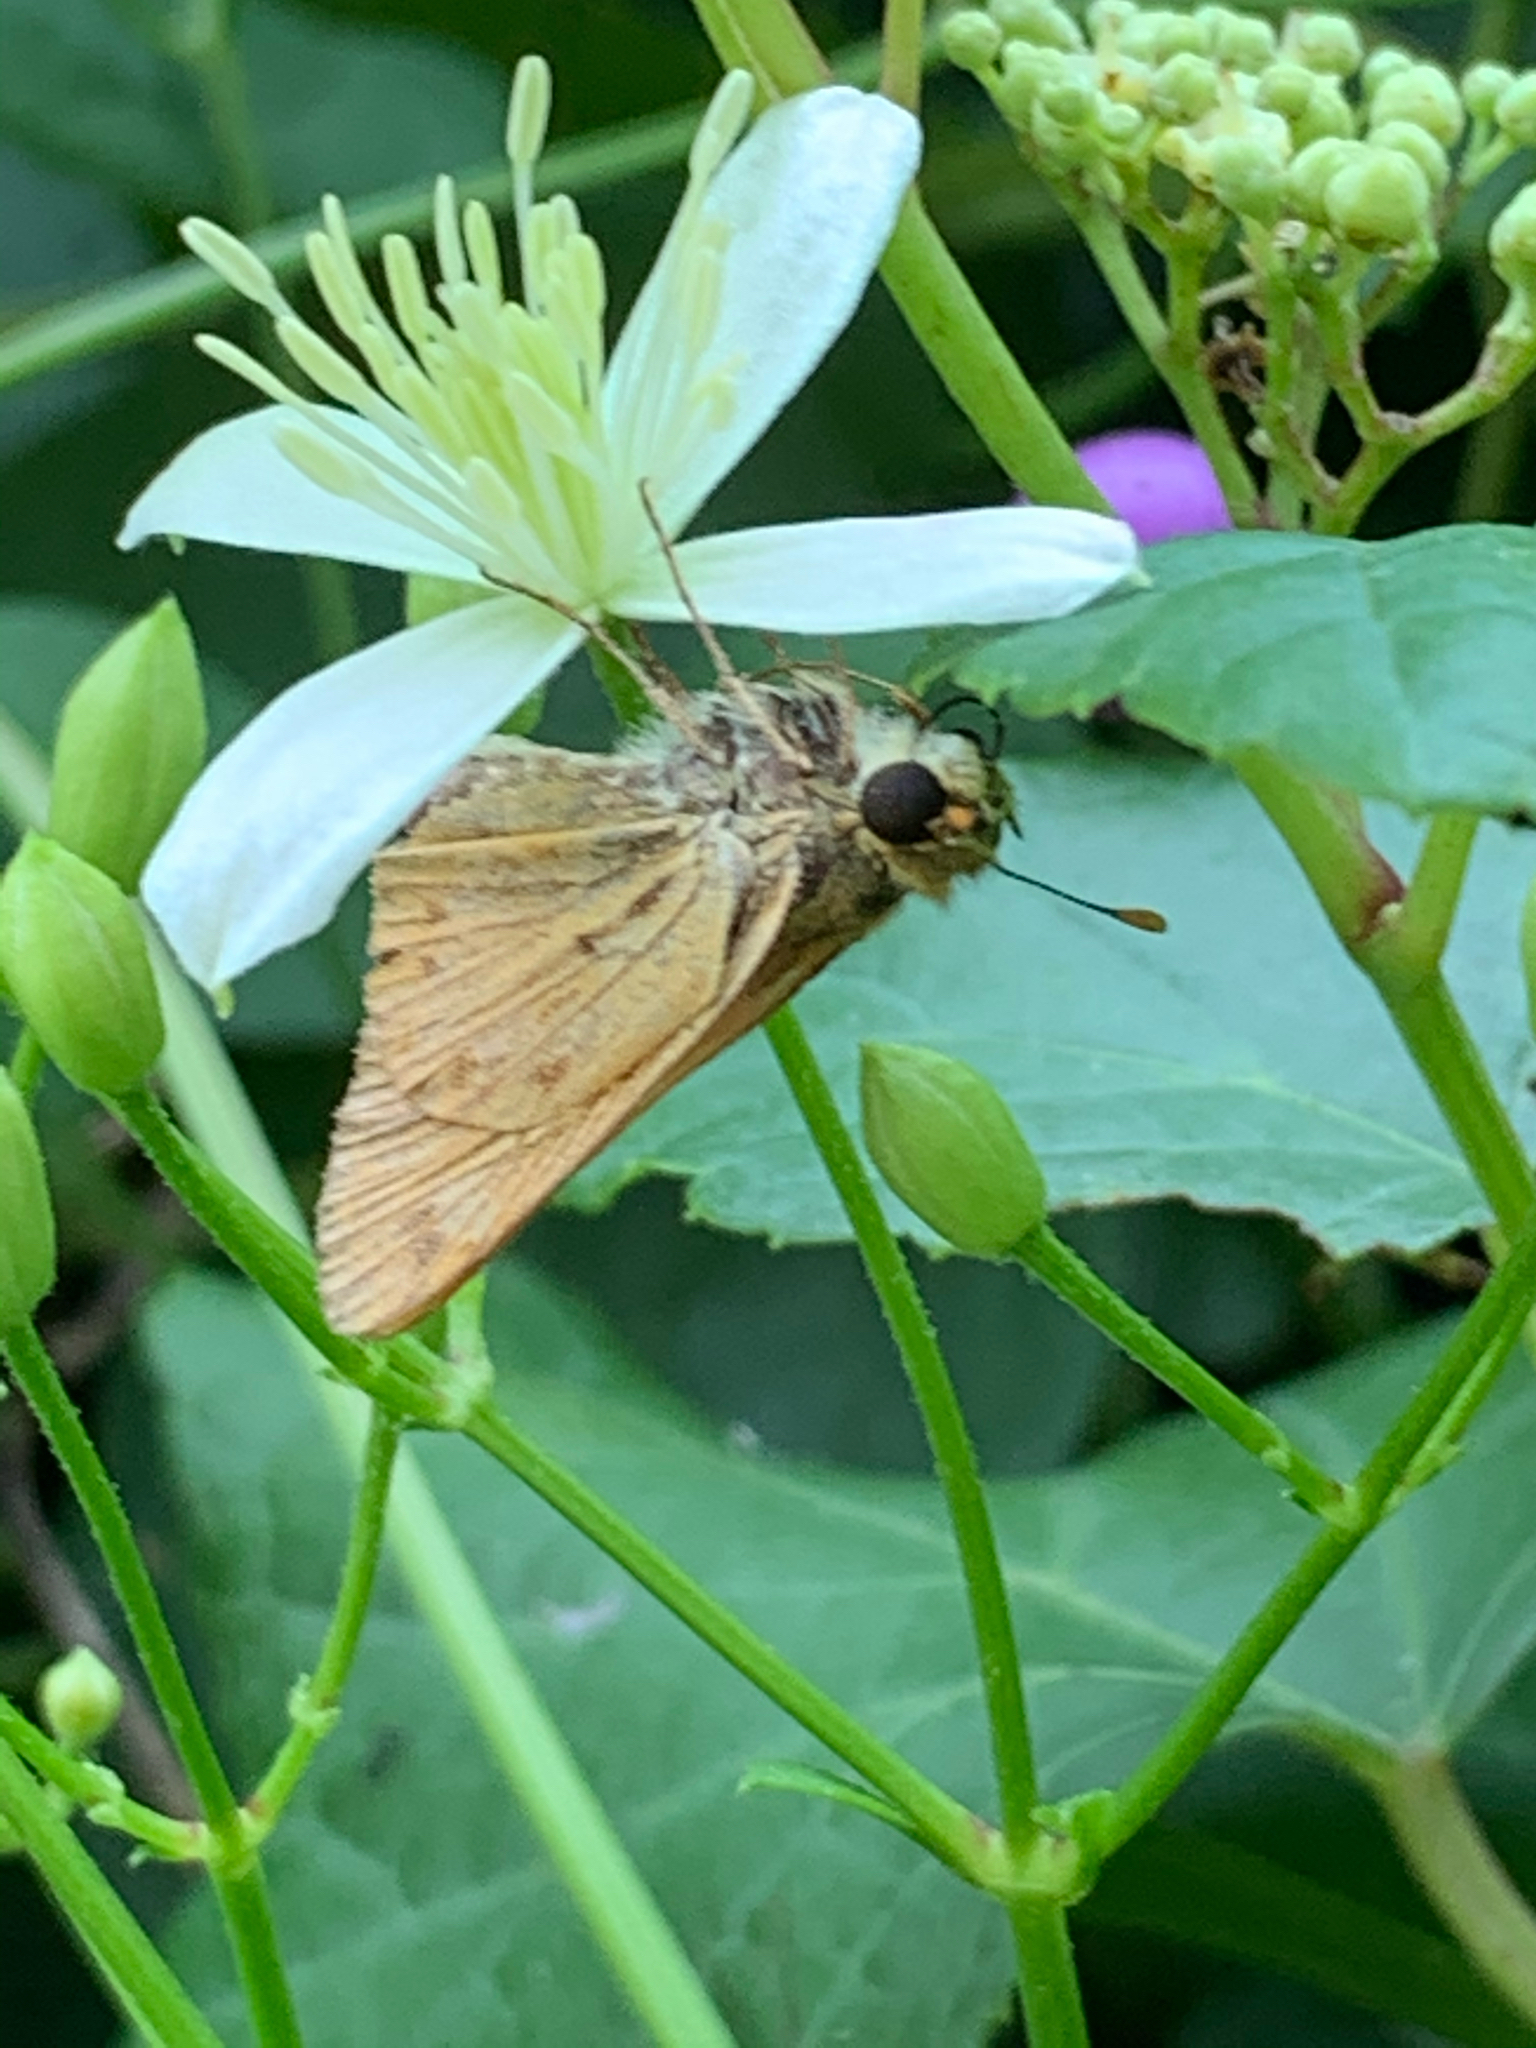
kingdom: Animalia
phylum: Arthropoda
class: Insecta
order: Lepidoptera
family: Hesperiidae
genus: Hylephila
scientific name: Hylephila phyleus
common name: Fiery skipper
